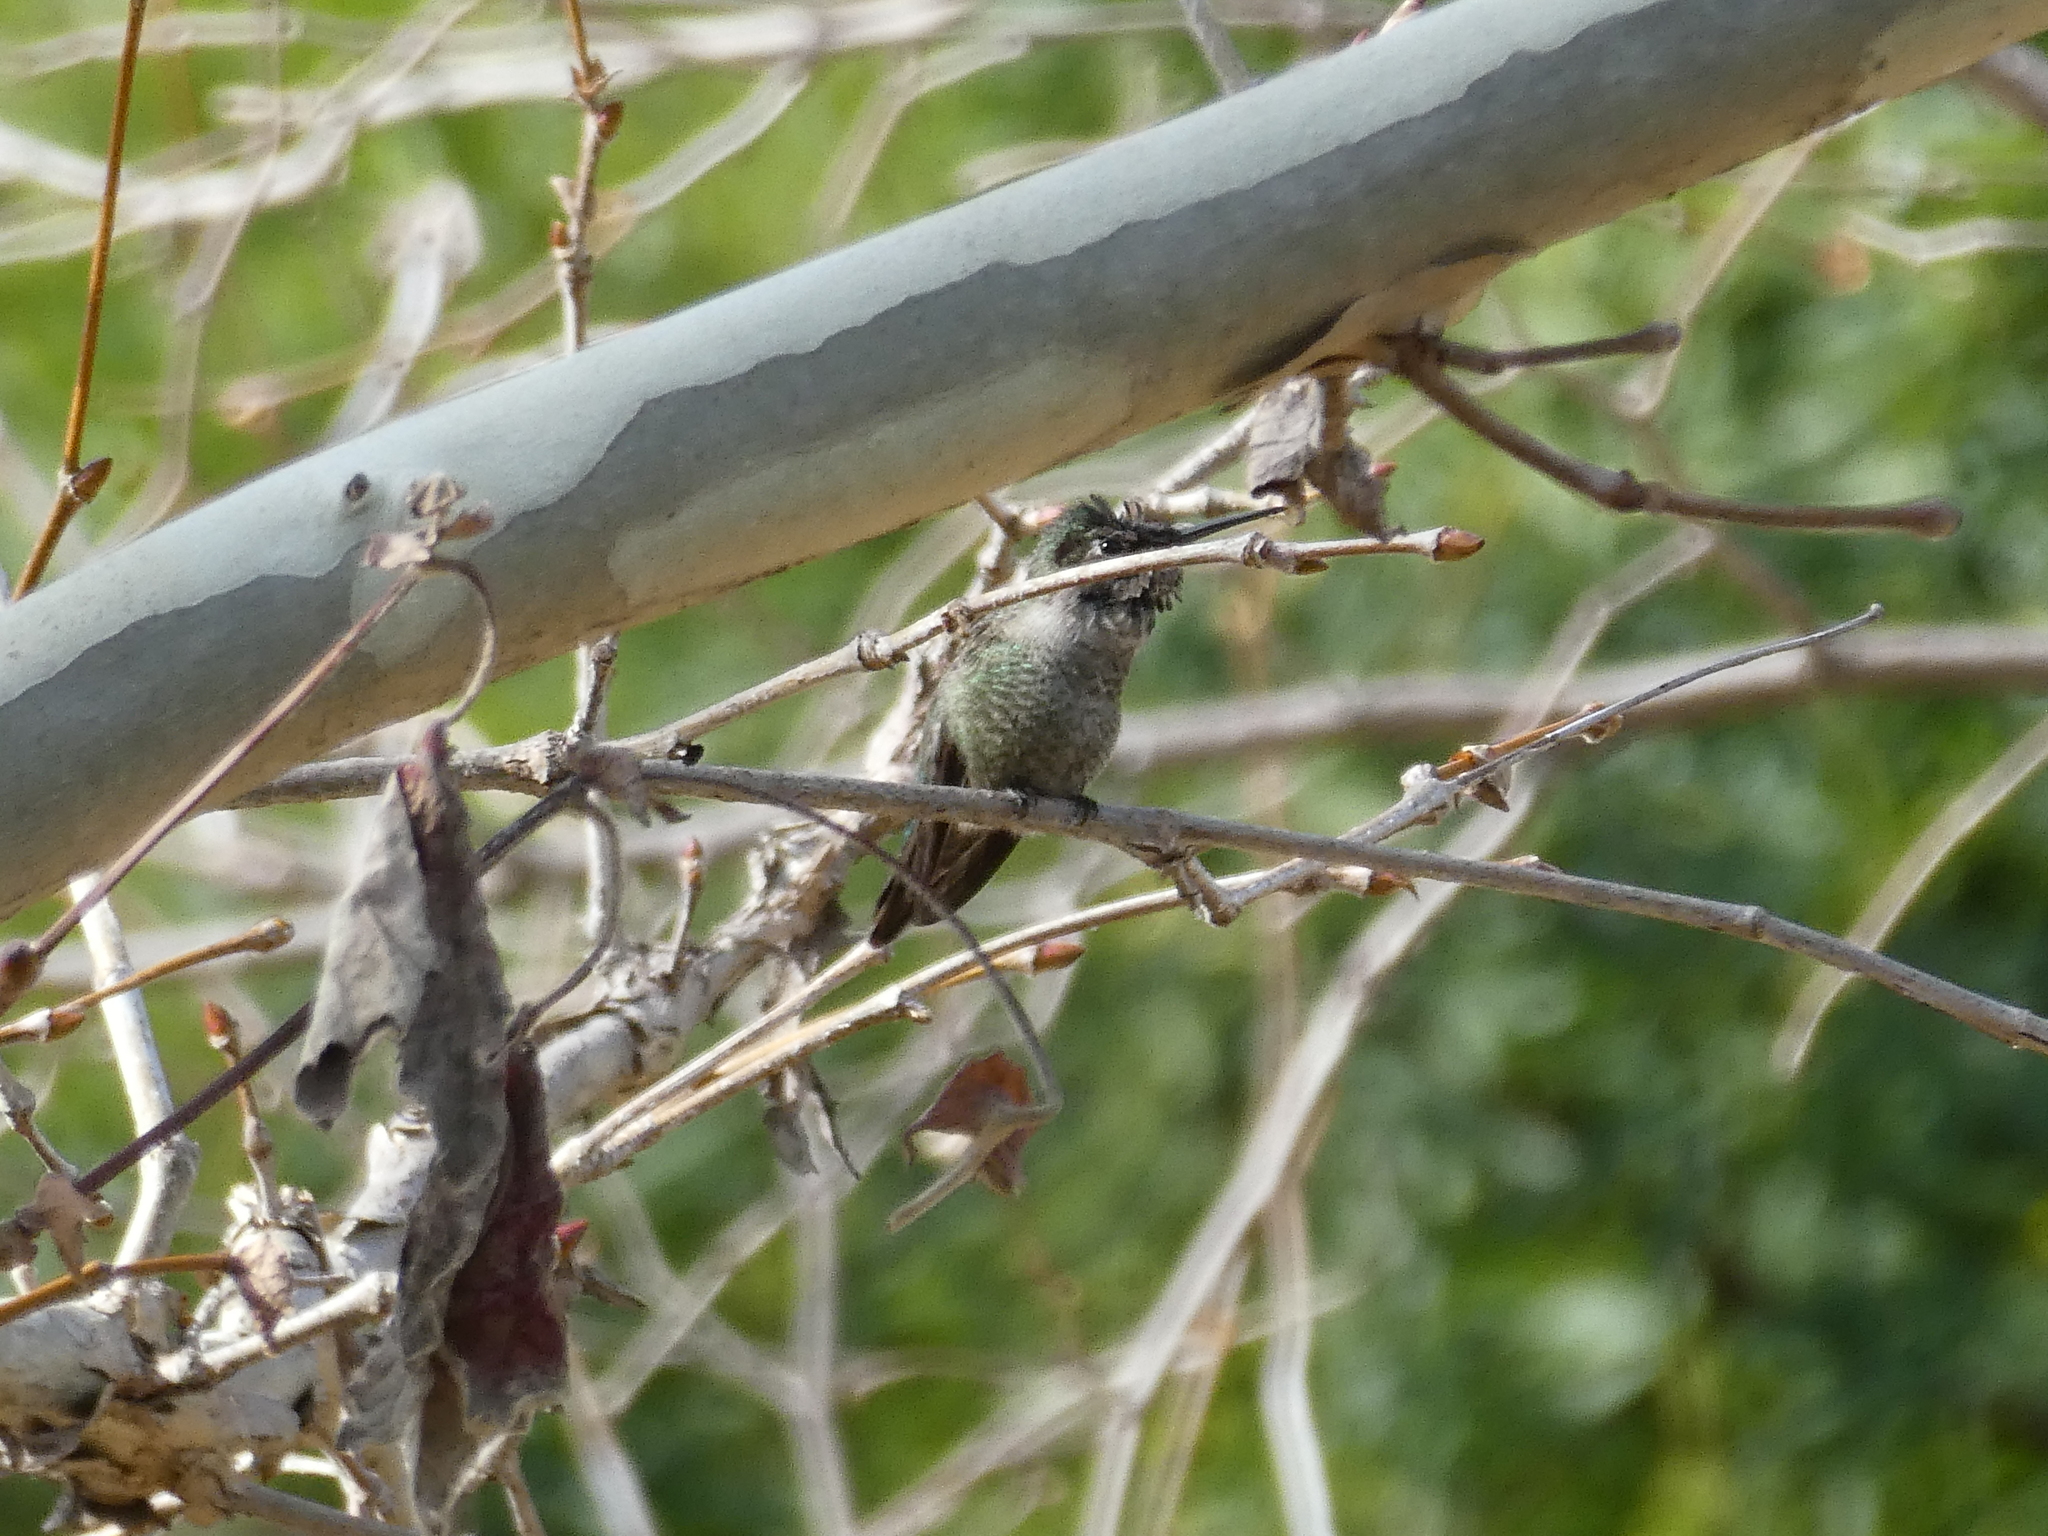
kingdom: Animalia
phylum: Chordata
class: Aves
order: Apodiformes
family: Trochilidae
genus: Calypte
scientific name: Calypte anna
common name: Anna's hummingbird
